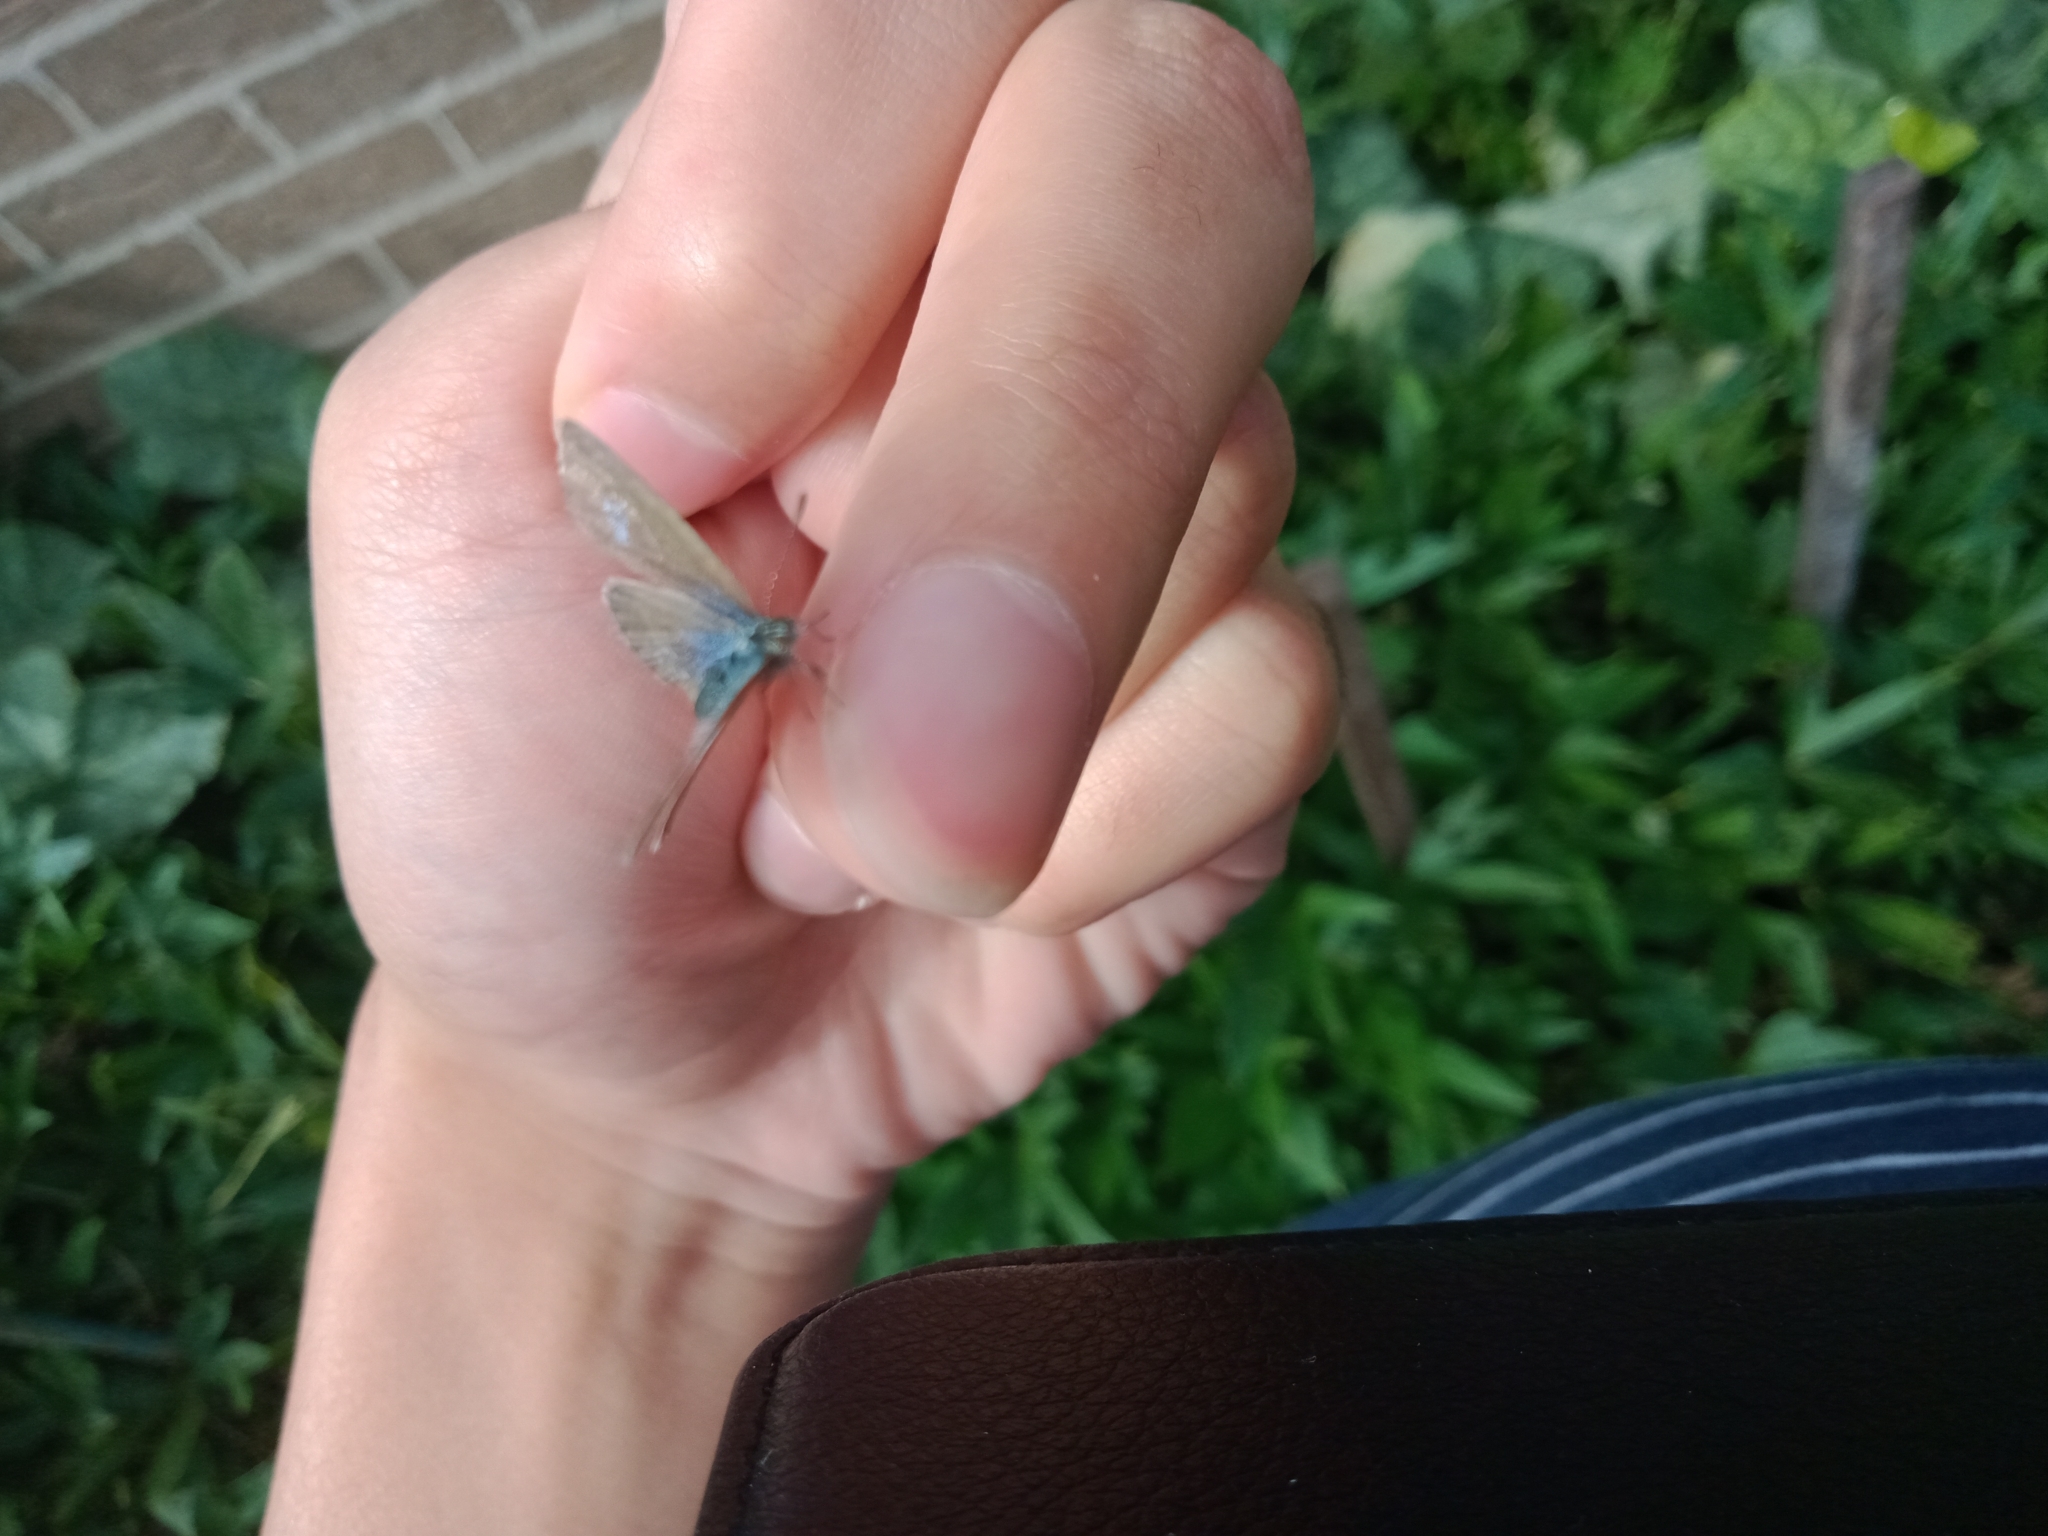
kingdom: Animalia
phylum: Arthropoda
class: Insecta
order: Lepidoptera
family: Lycaenidae
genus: Zizina
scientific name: Zizina labradus
